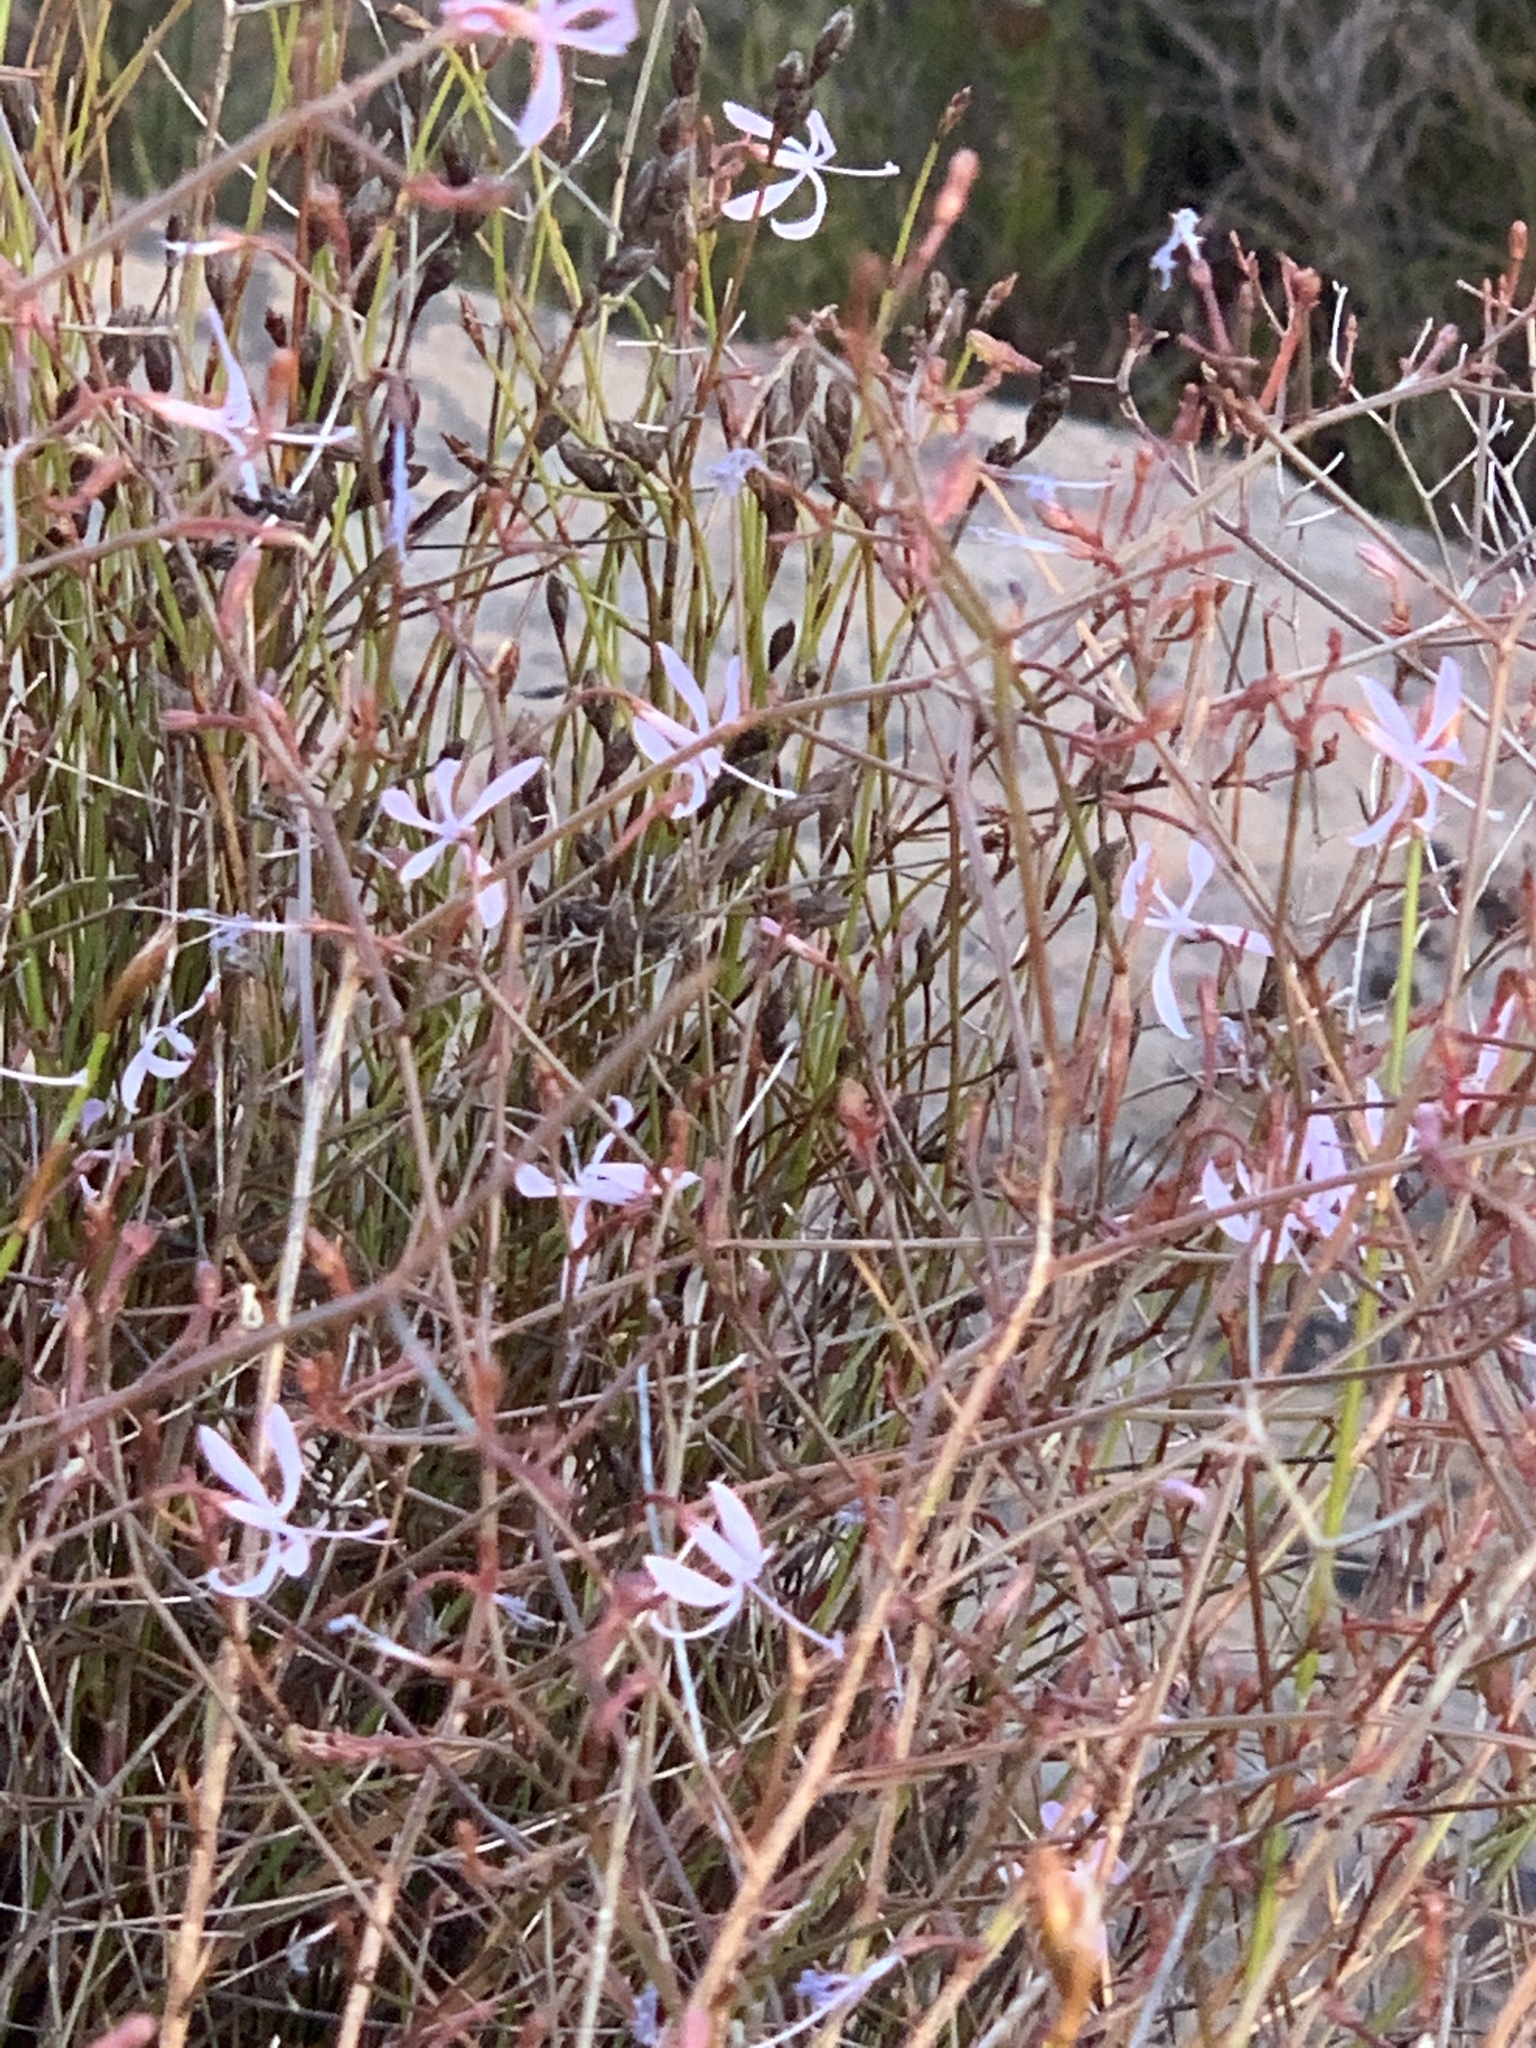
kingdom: Plantae
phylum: Tracheophyta
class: Magnoliopsida
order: Asterales
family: Campanulaceae
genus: Prismatocarpus
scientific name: Prismatocarpus diffusus
